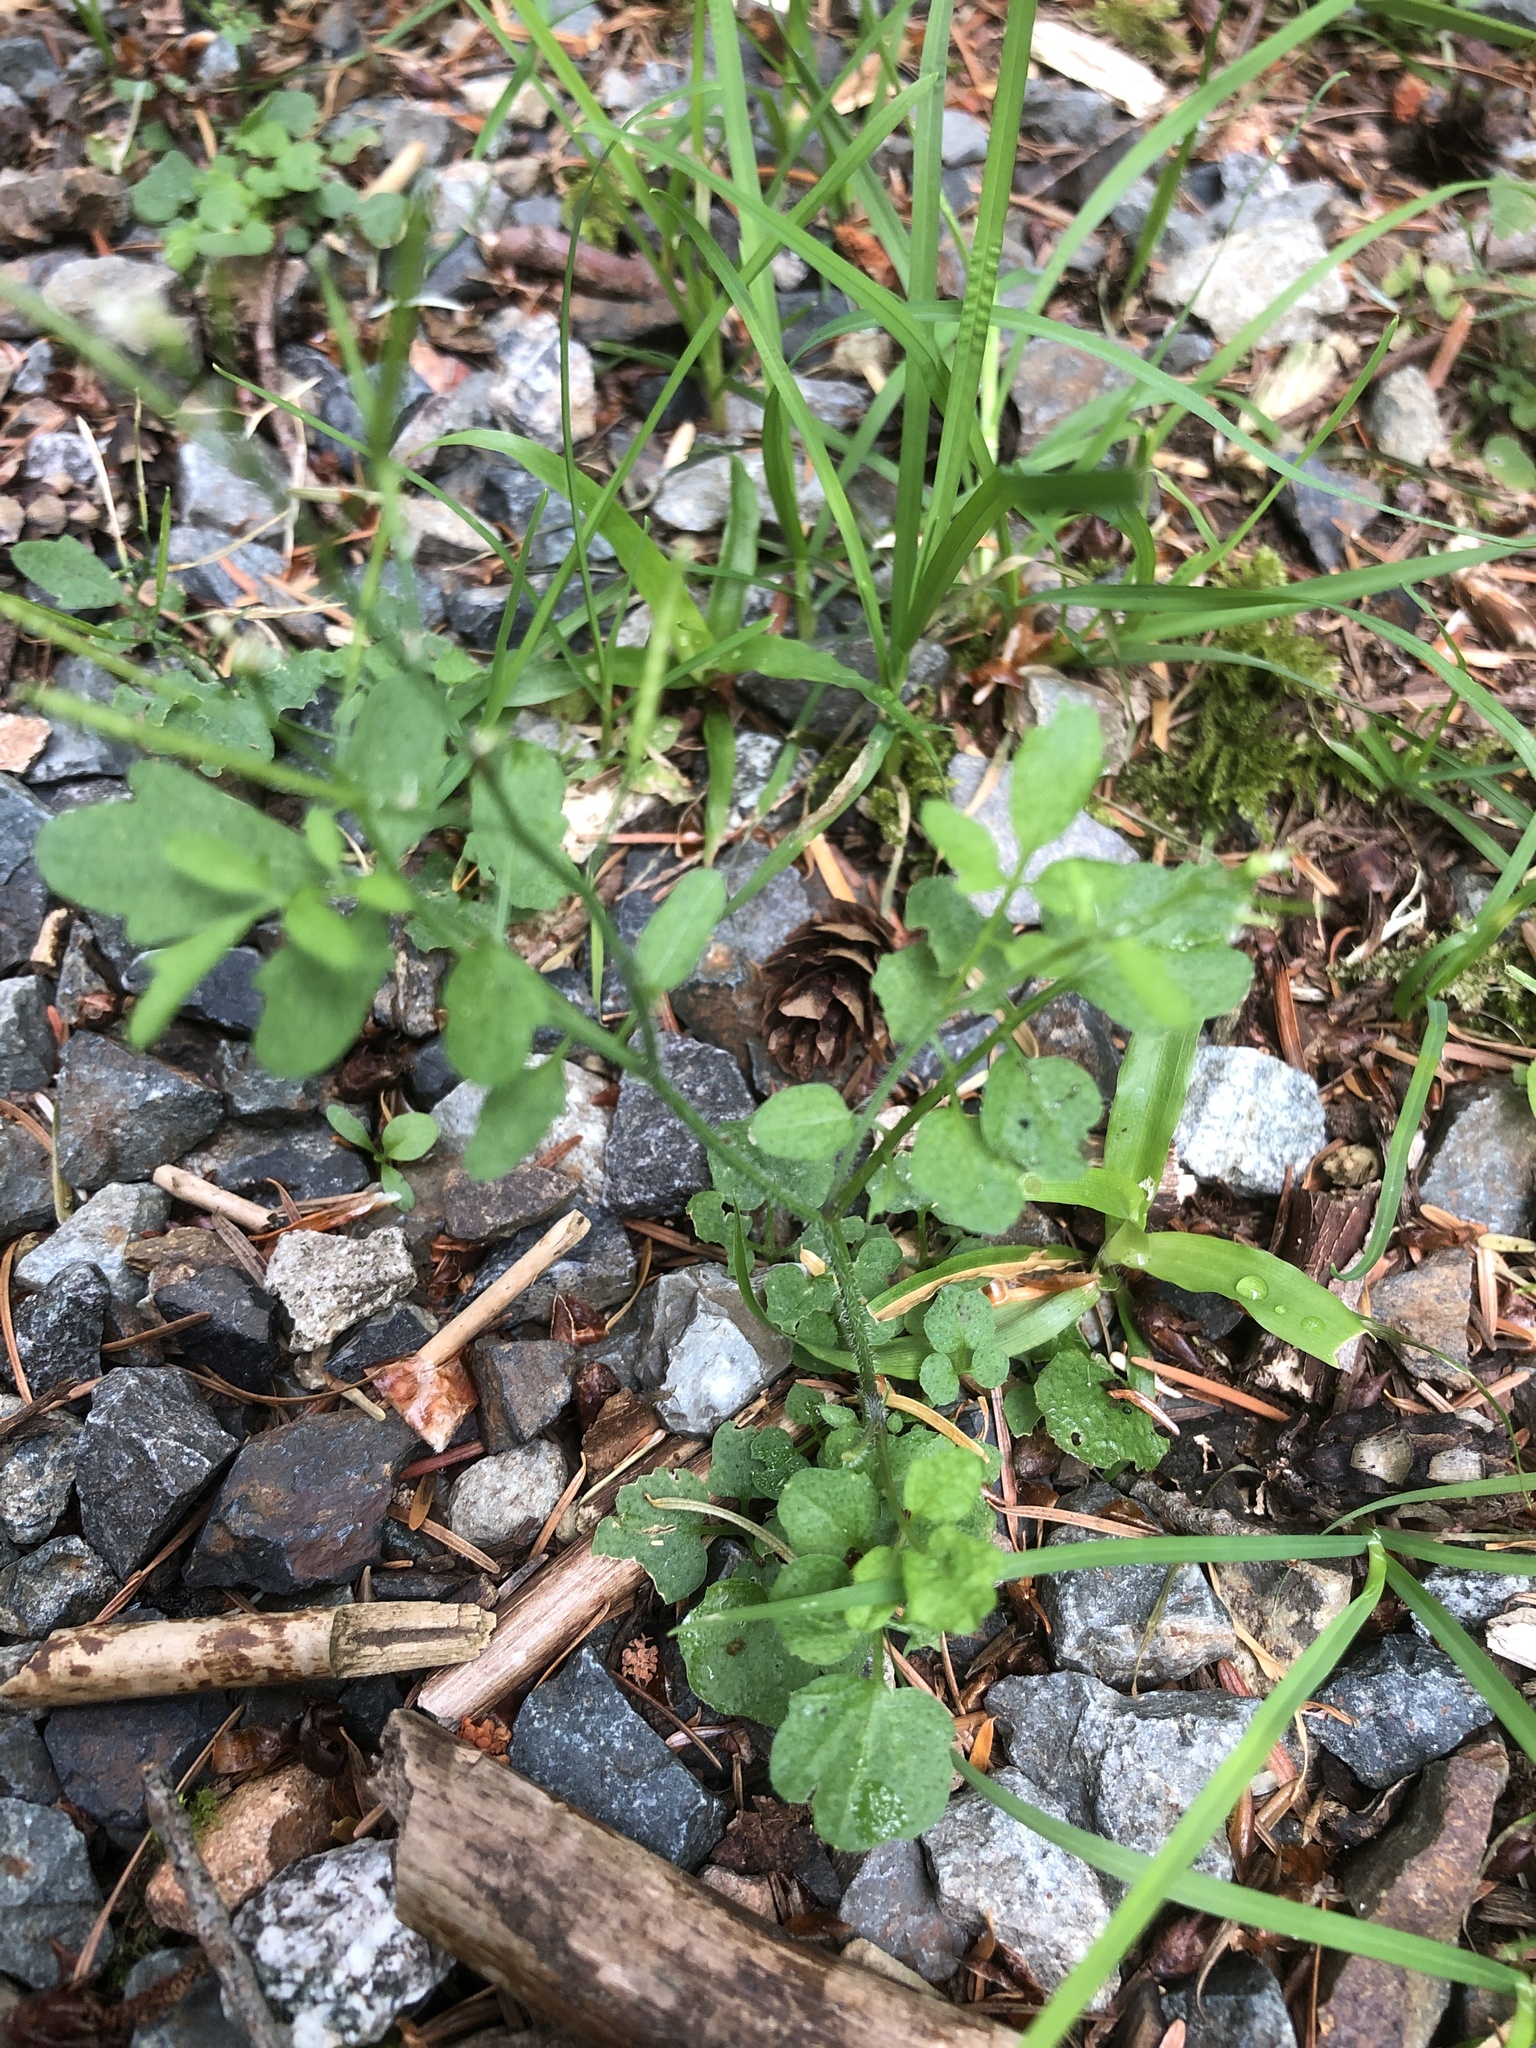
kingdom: Plantae
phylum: Tracheophyta
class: Magnoliopsida
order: Brassicales
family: Brassicaceae
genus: Cardamine
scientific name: Cardamine flexuosa
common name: Woodland bittercress
